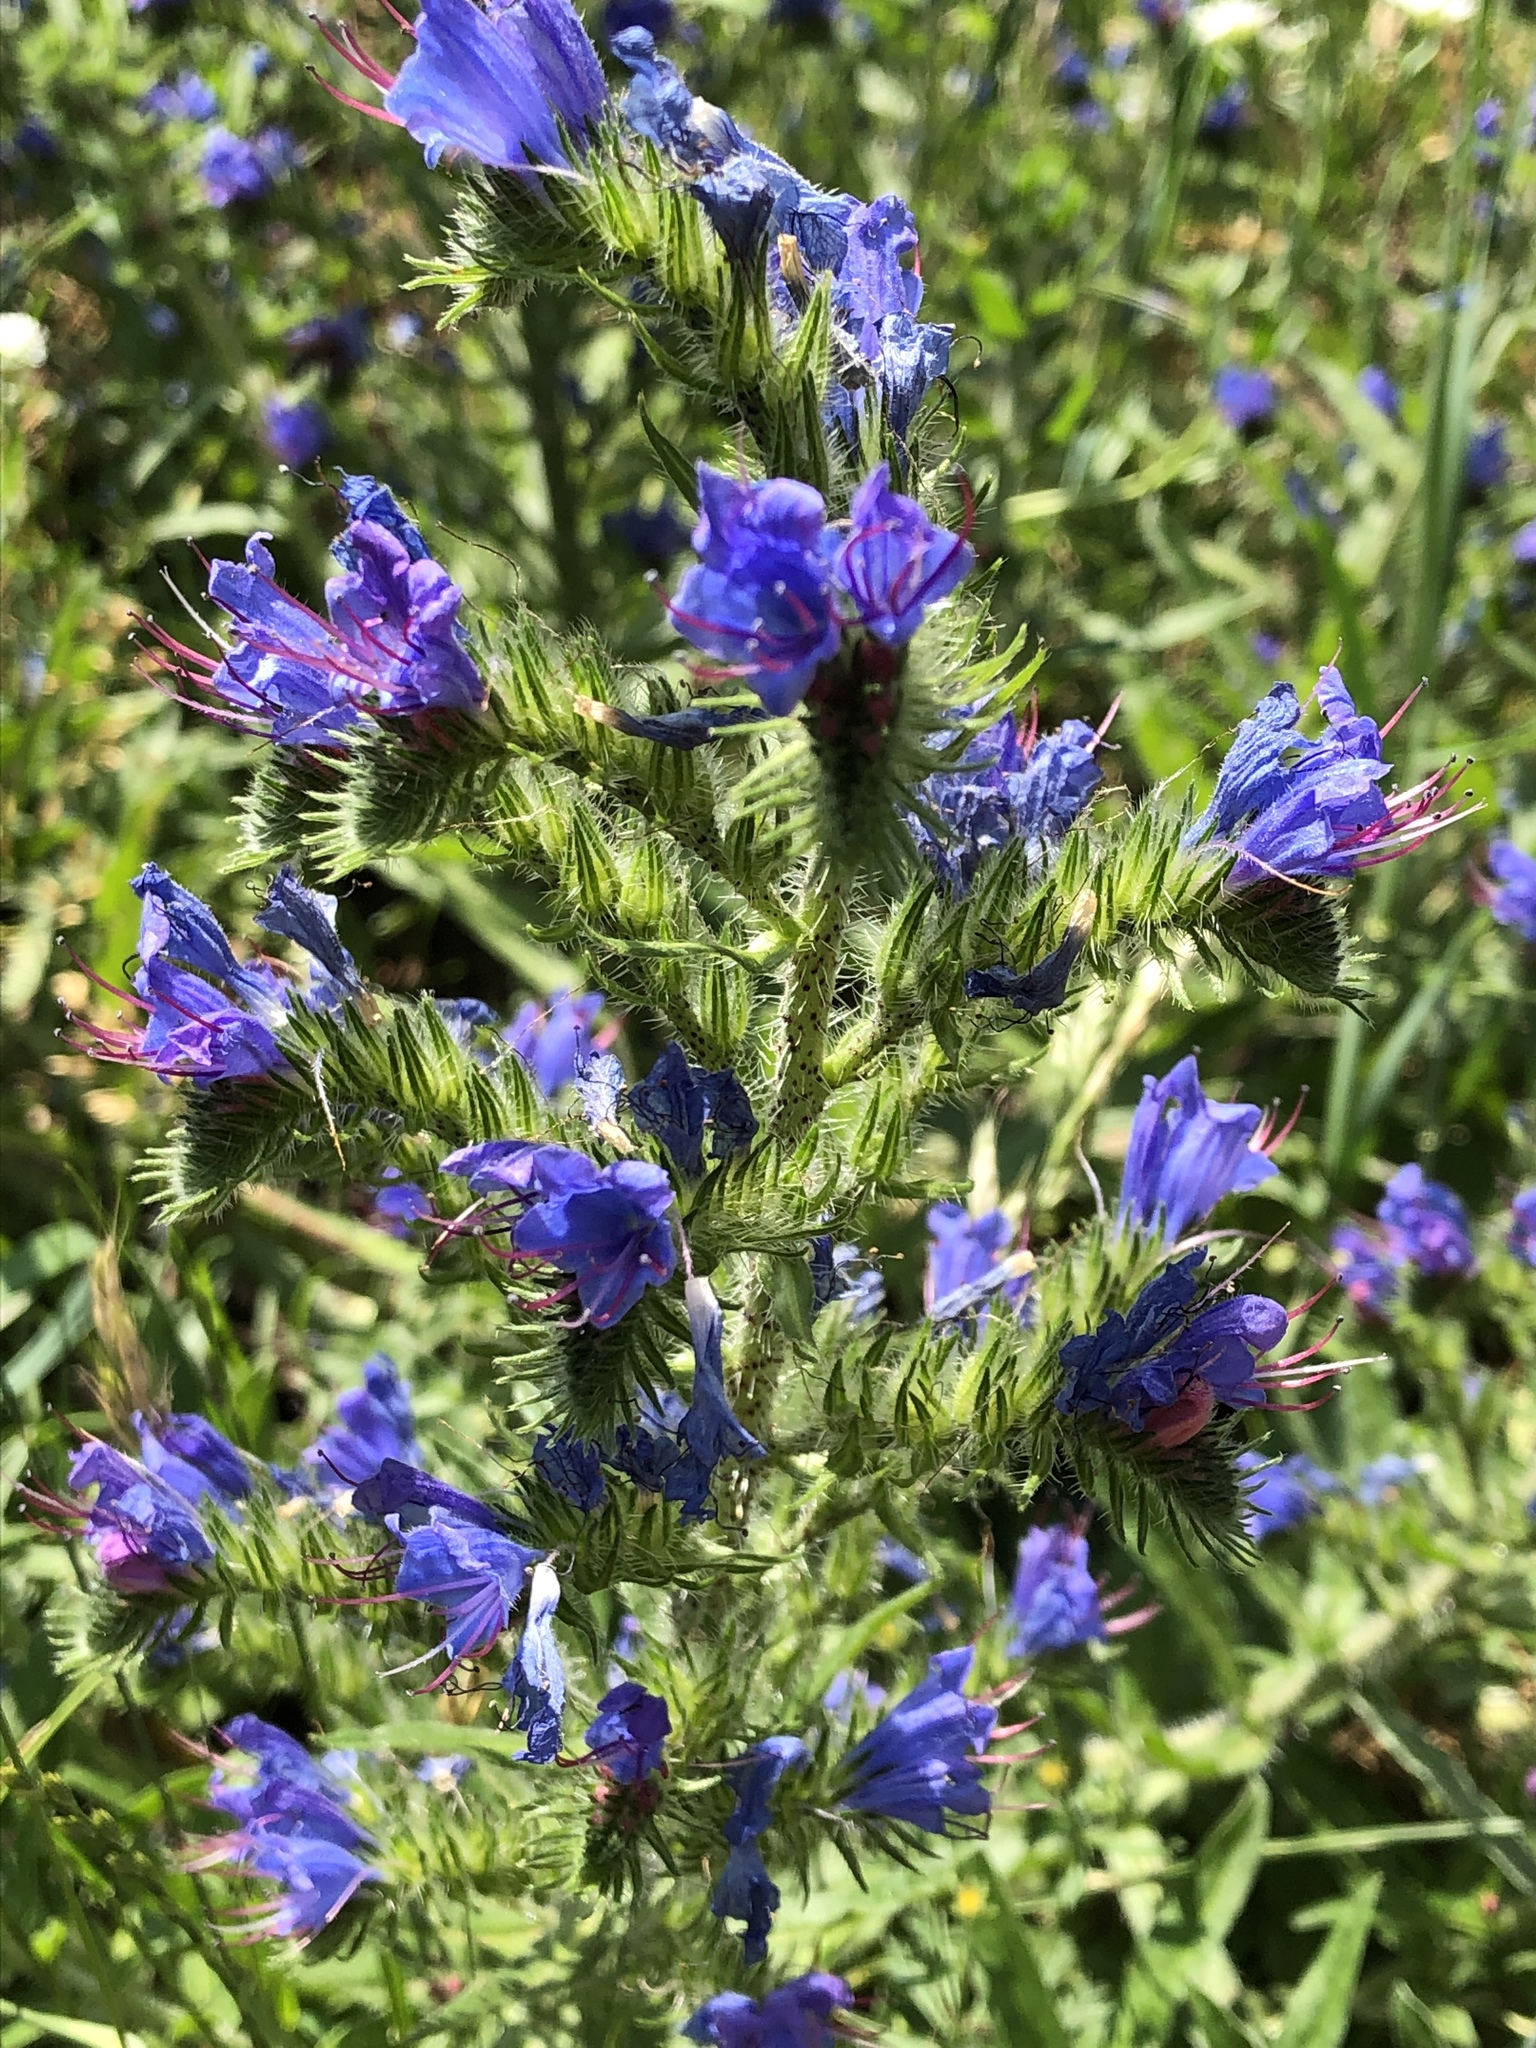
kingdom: Plantae
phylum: Tracheophyta
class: Magnoliopsida
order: Boraginales
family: Boraginaceae
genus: Echium
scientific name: Echium vulgare
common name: Common viper's bugloss
